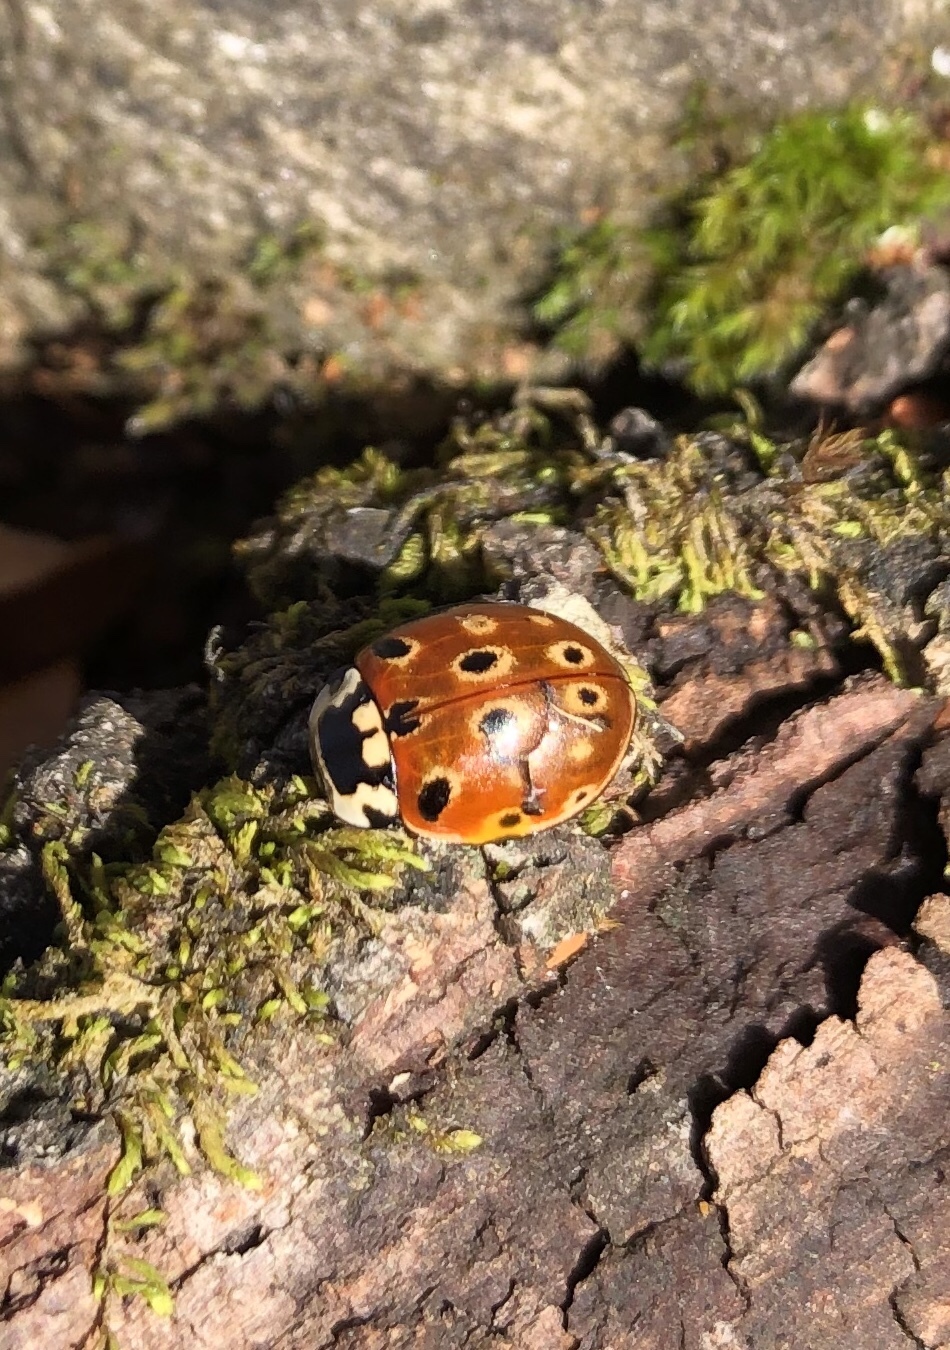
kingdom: Animalia
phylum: Arthropoda
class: Insecta
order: Coleoptera
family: Coccinellidae
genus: Anatis
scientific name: Anatis ocellata
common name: Eyed ladybird
